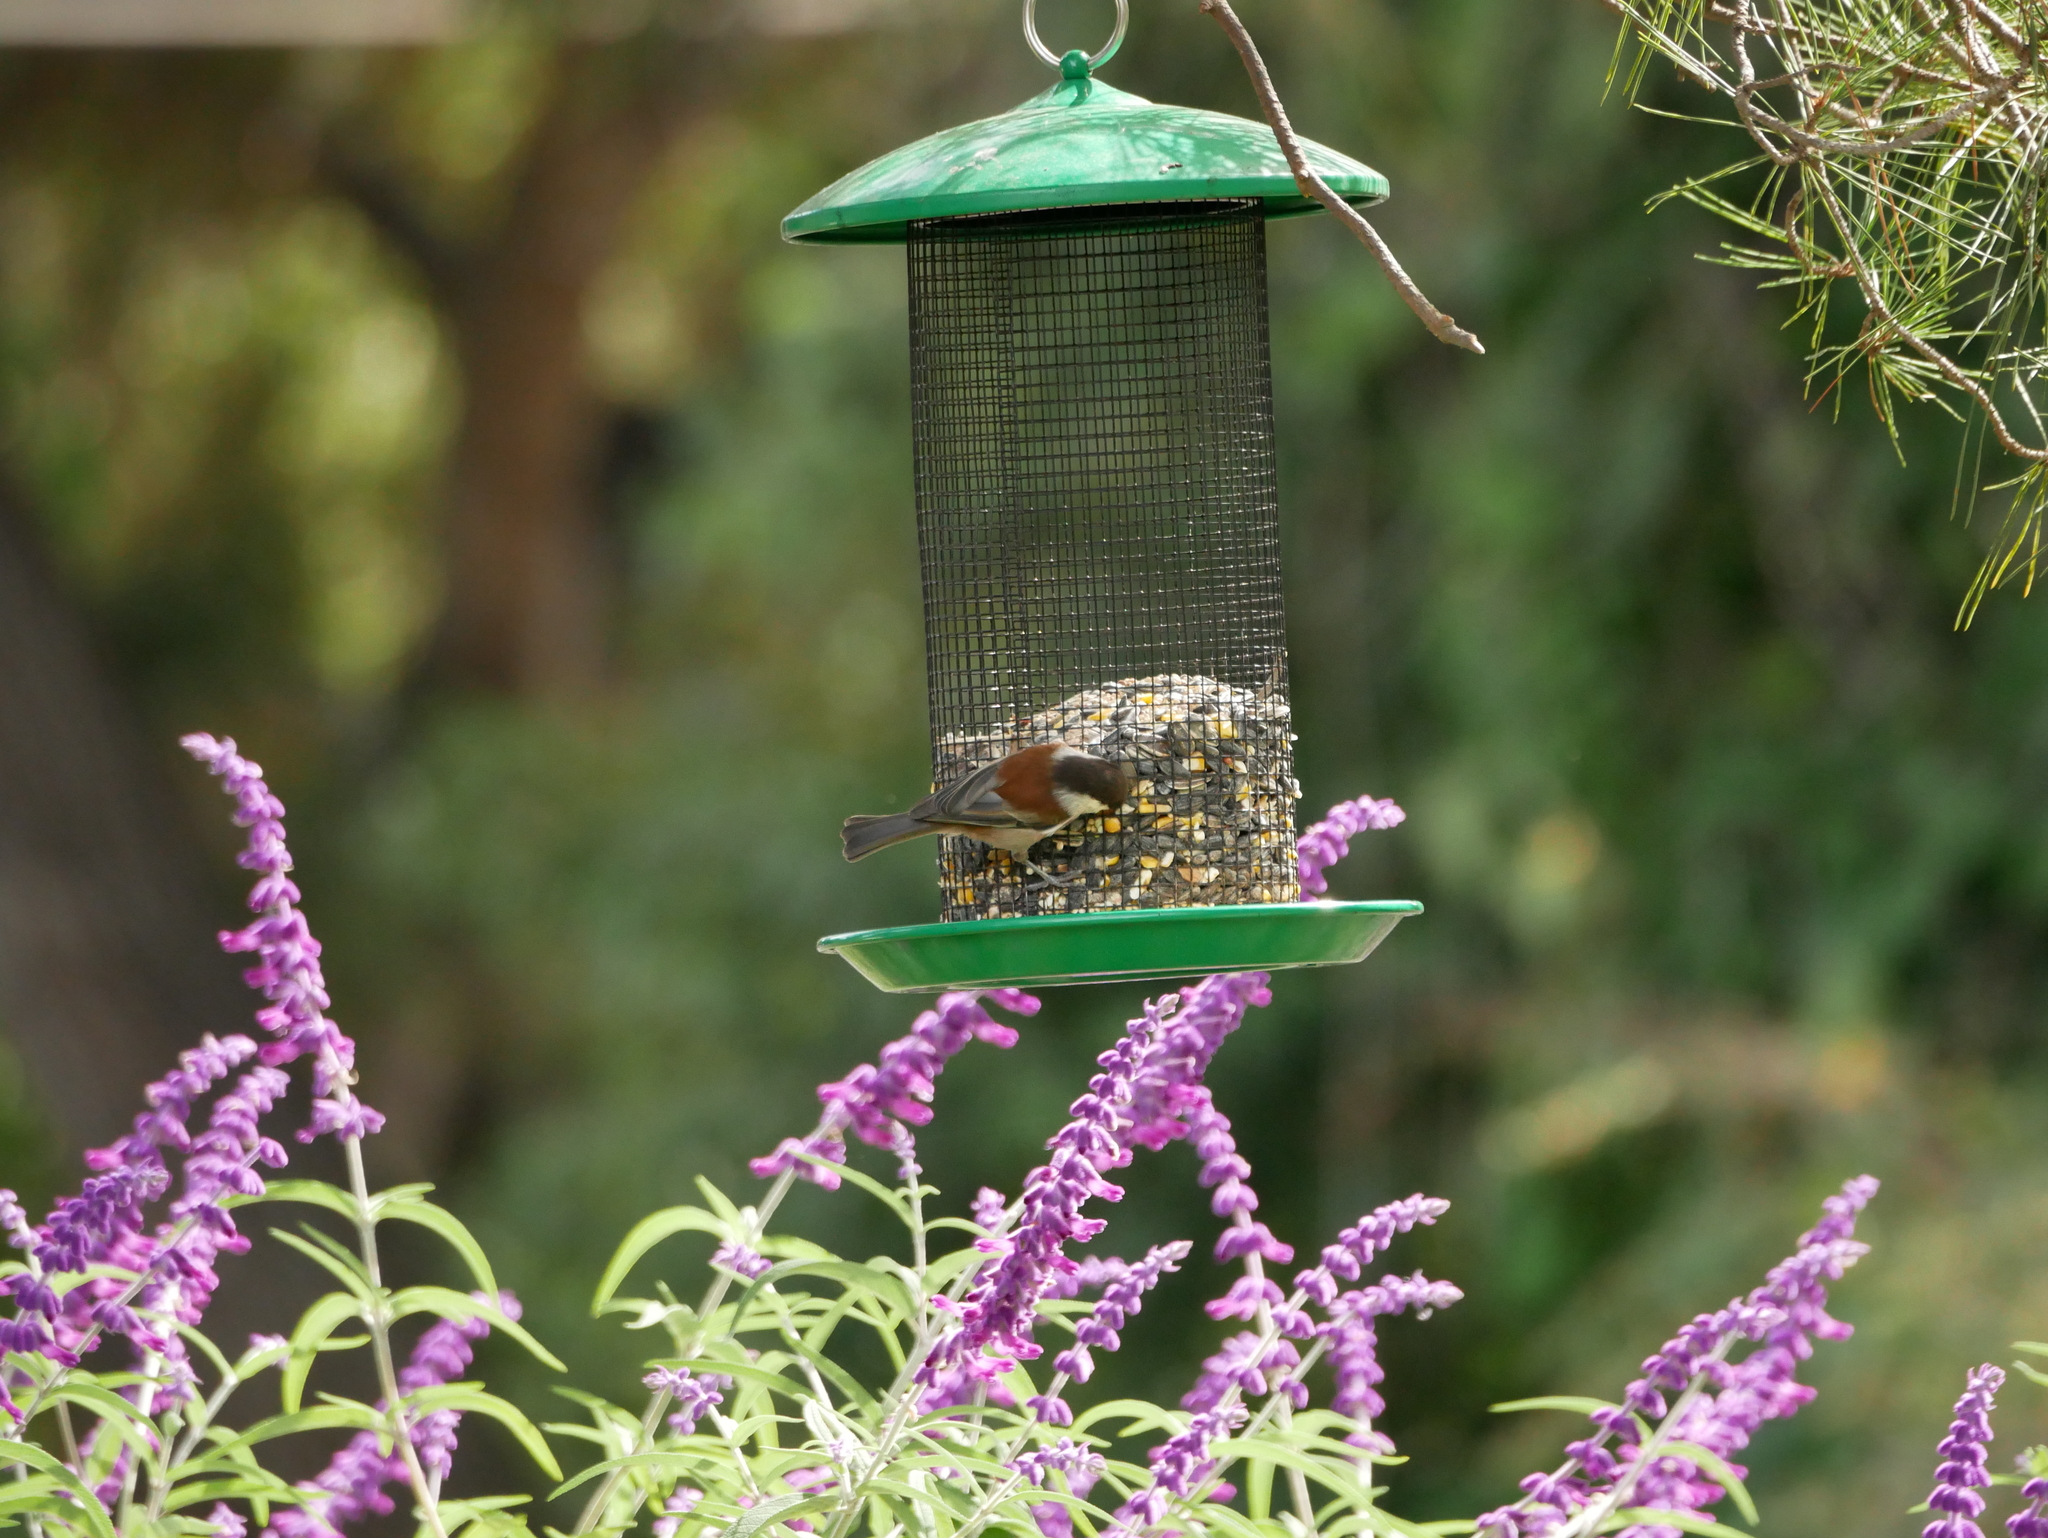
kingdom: Animalia
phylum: Chordata
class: Aves
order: Passeriformes
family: Paridae
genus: Poecile
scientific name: Poecile rufescens
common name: Chestnut-backed chickadee
